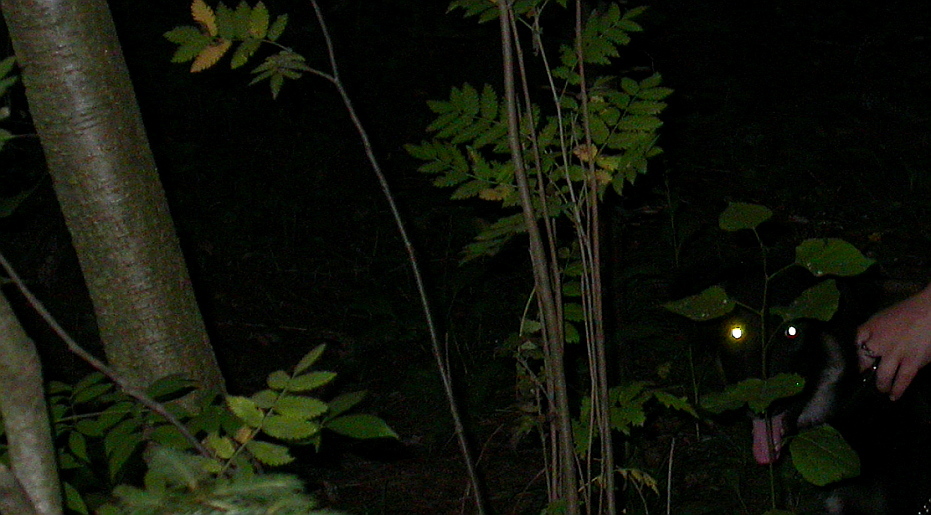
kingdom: Plantae
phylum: Tracheophyta
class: Magnoliopsida
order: Rosales
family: Rosaceae
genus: Sorbus
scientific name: Sorbus aucuparia
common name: Rowan
